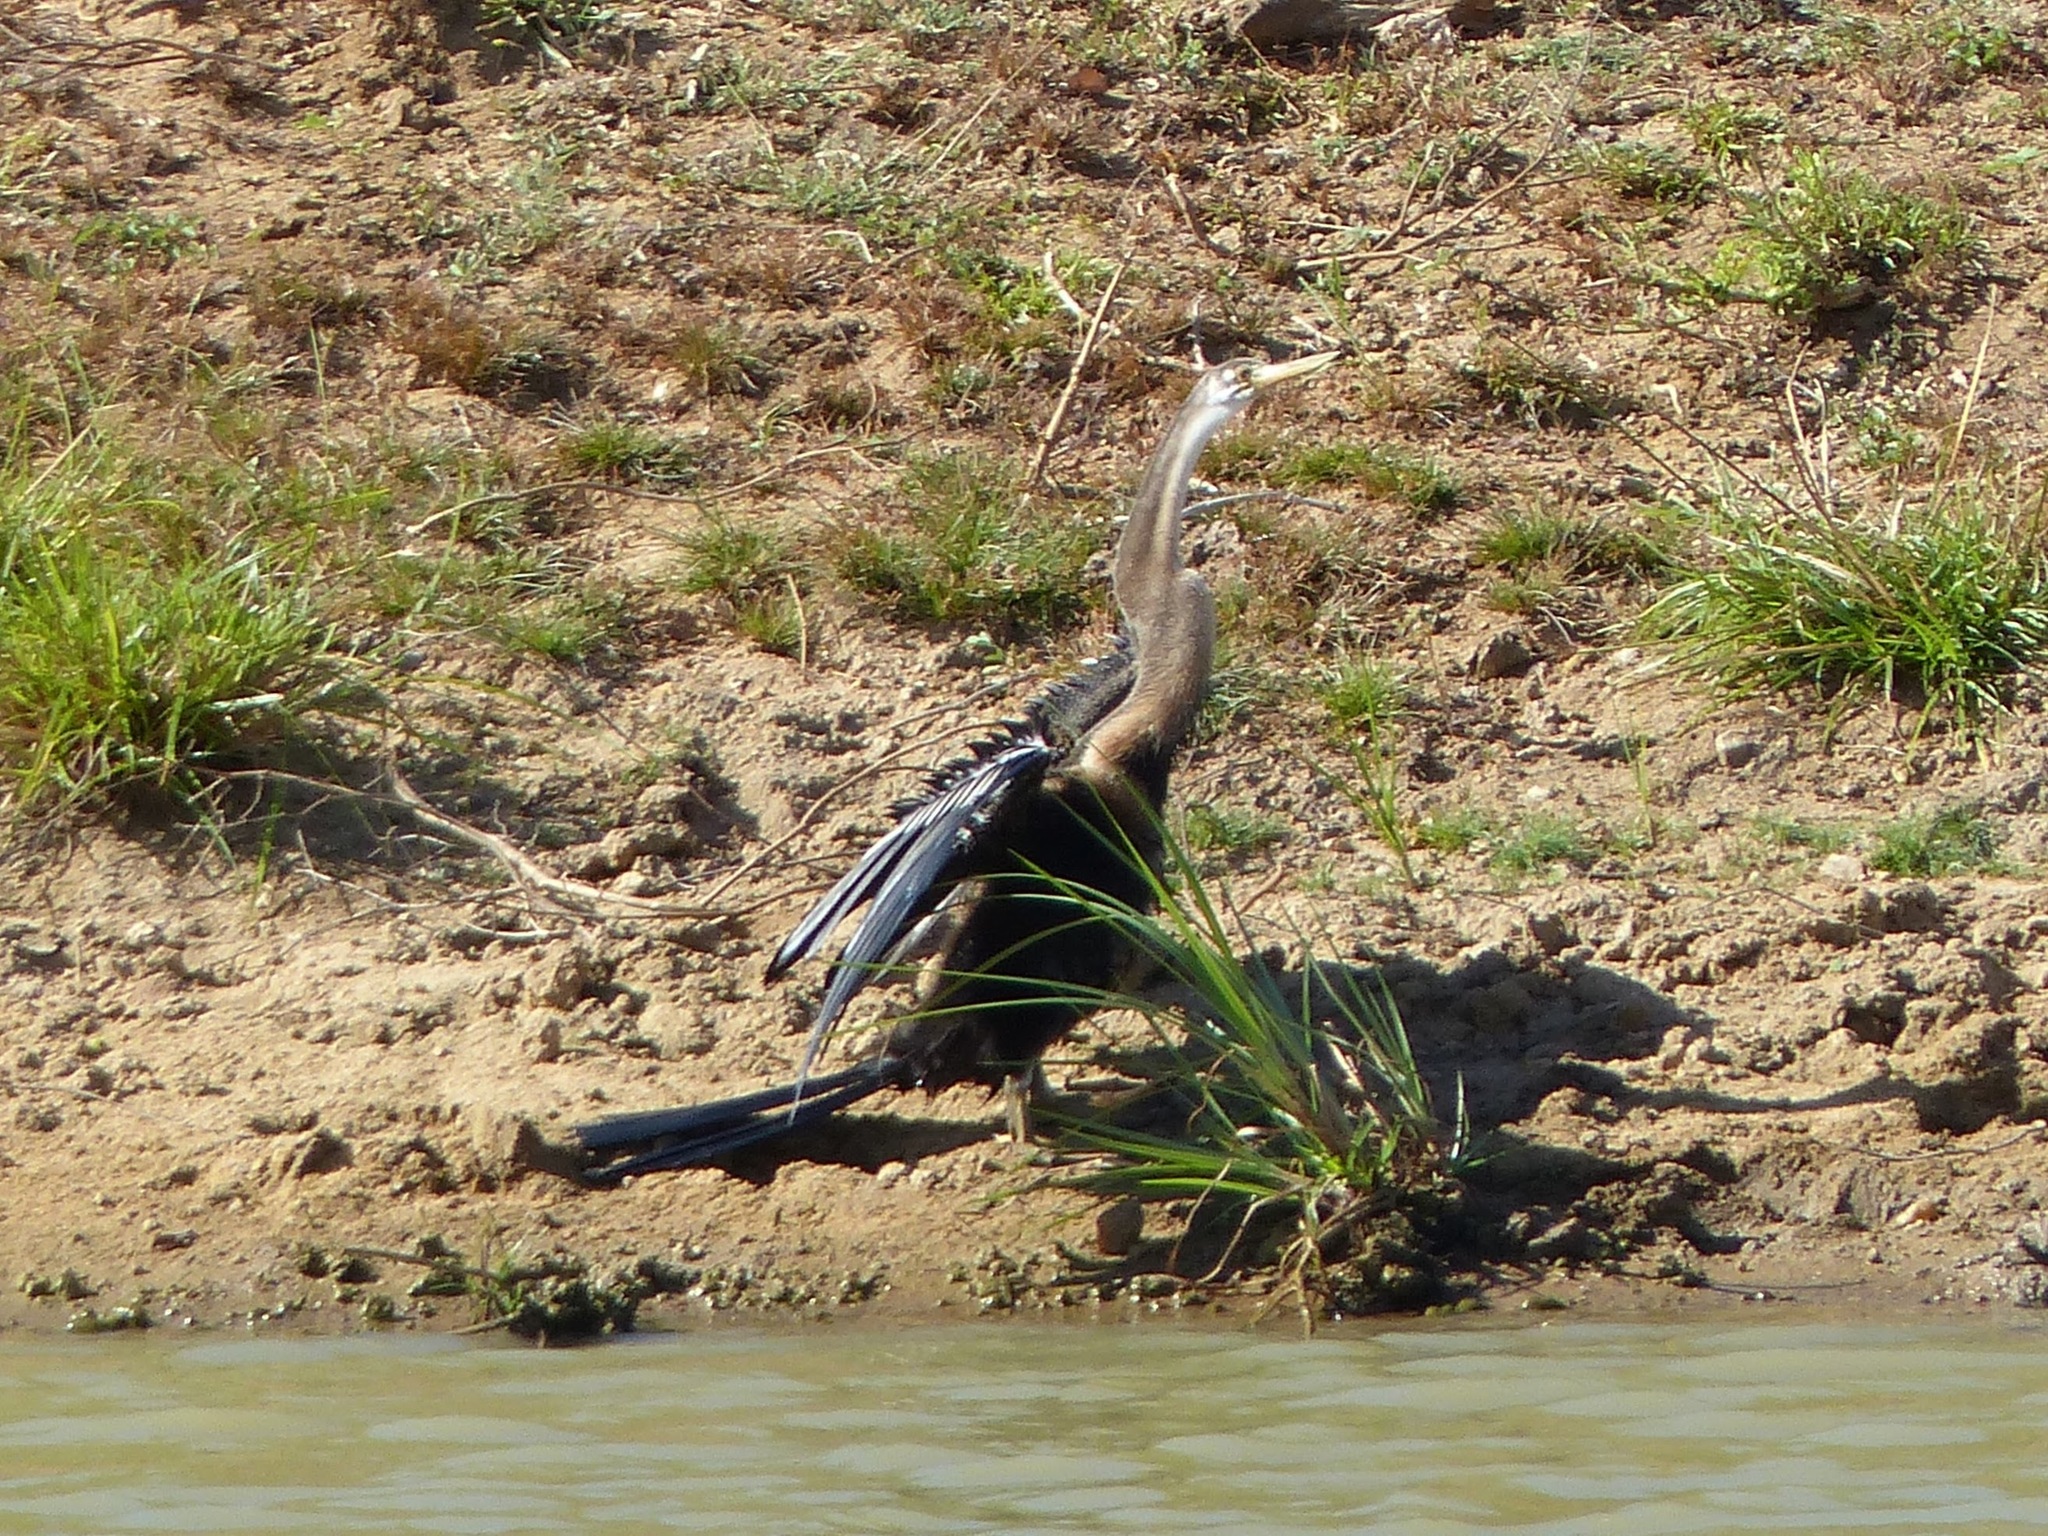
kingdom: Animalia
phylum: Chordata
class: Aves
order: Suliformes
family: Anhingidae
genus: Anhinga
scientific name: Anhinga melanogaster
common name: Oriental darter
